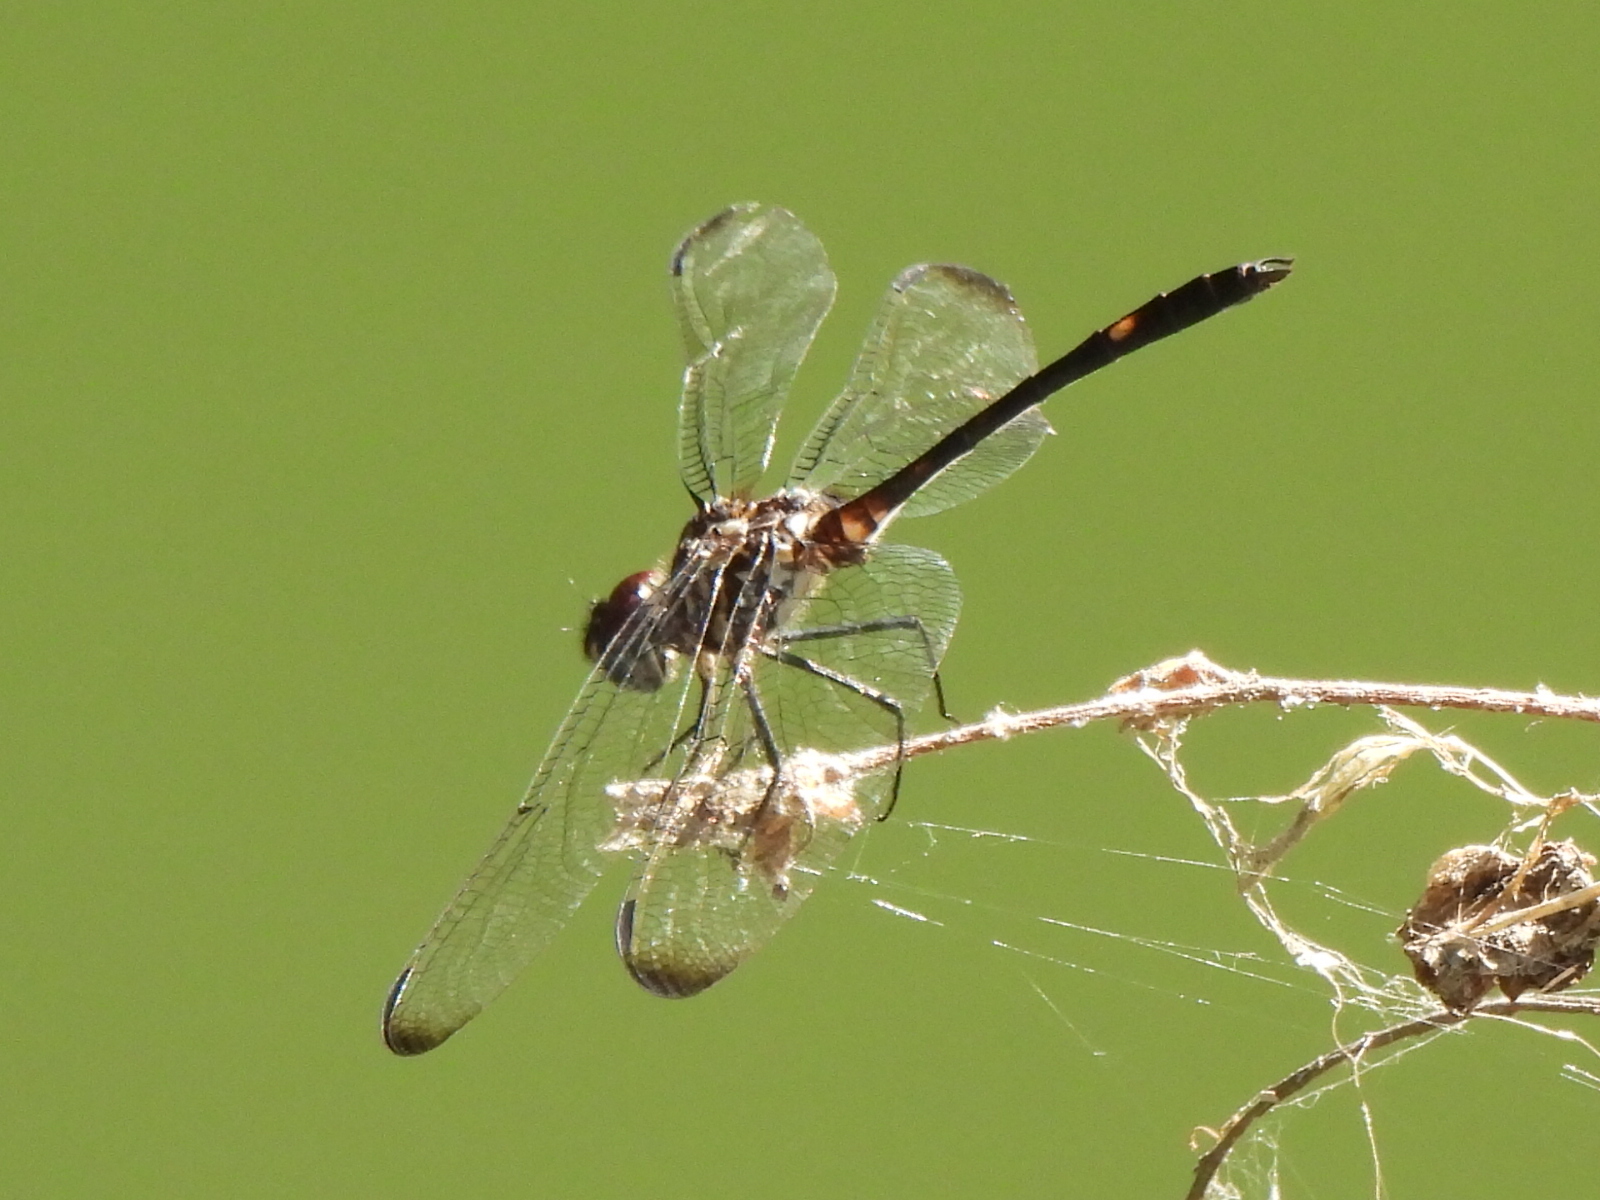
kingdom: Animalia
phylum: Arthropoda
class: Insecta
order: Odonata
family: Libellulidae
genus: Dythemis
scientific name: Dythemis velox
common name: Swift setwing
